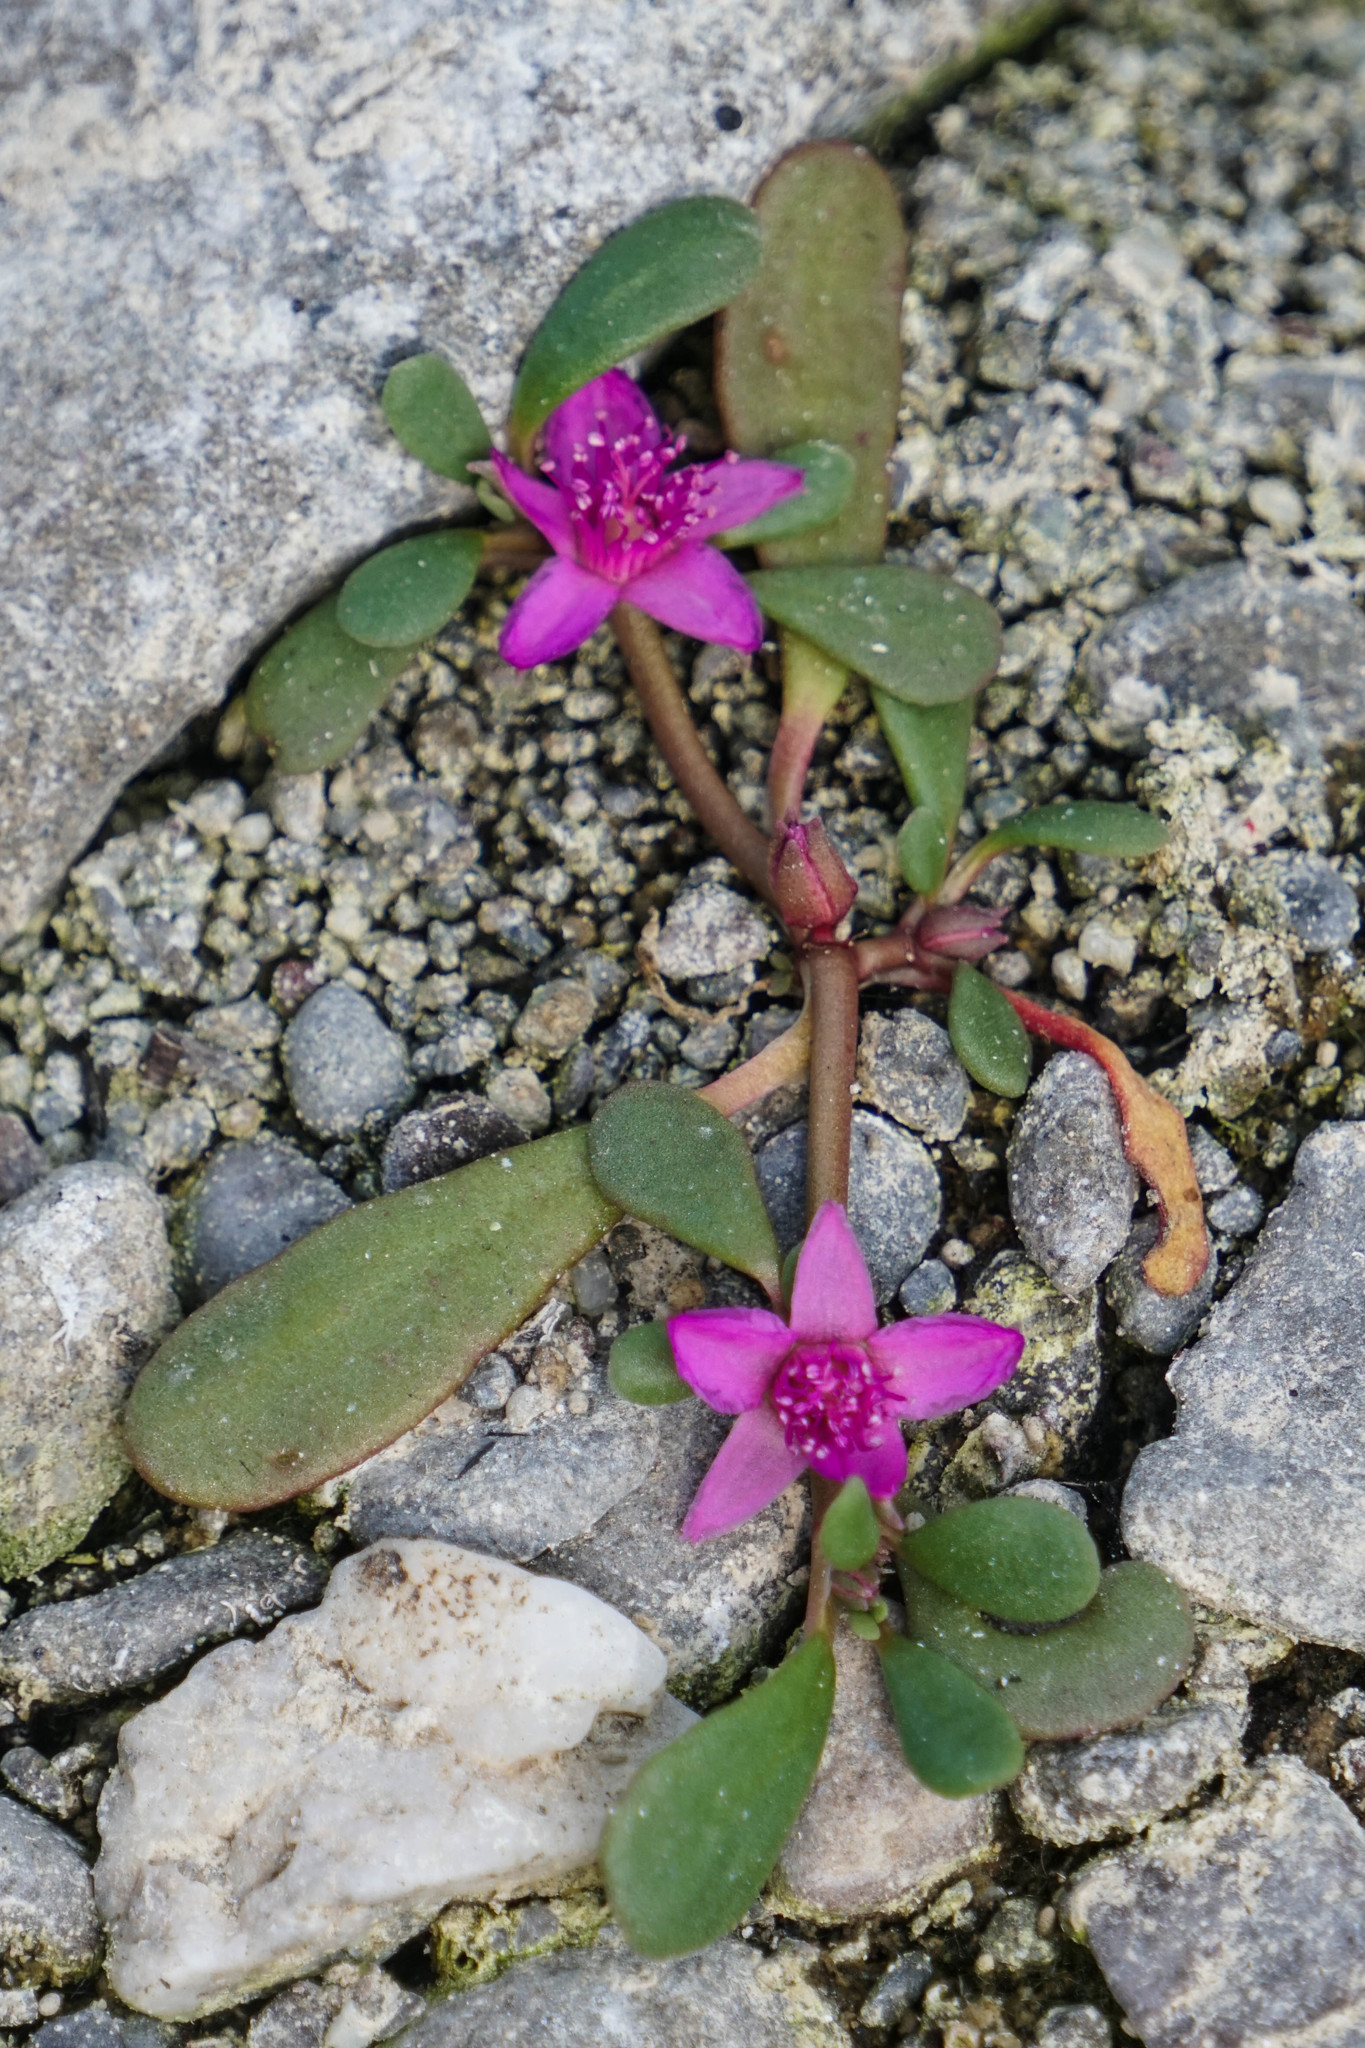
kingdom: Plantae
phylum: Tracheophyta
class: Magnoliopsida
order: Caryophyllales
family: Aizoaceae
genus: Sesuvium
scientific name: Sesuvium revolutifolium
